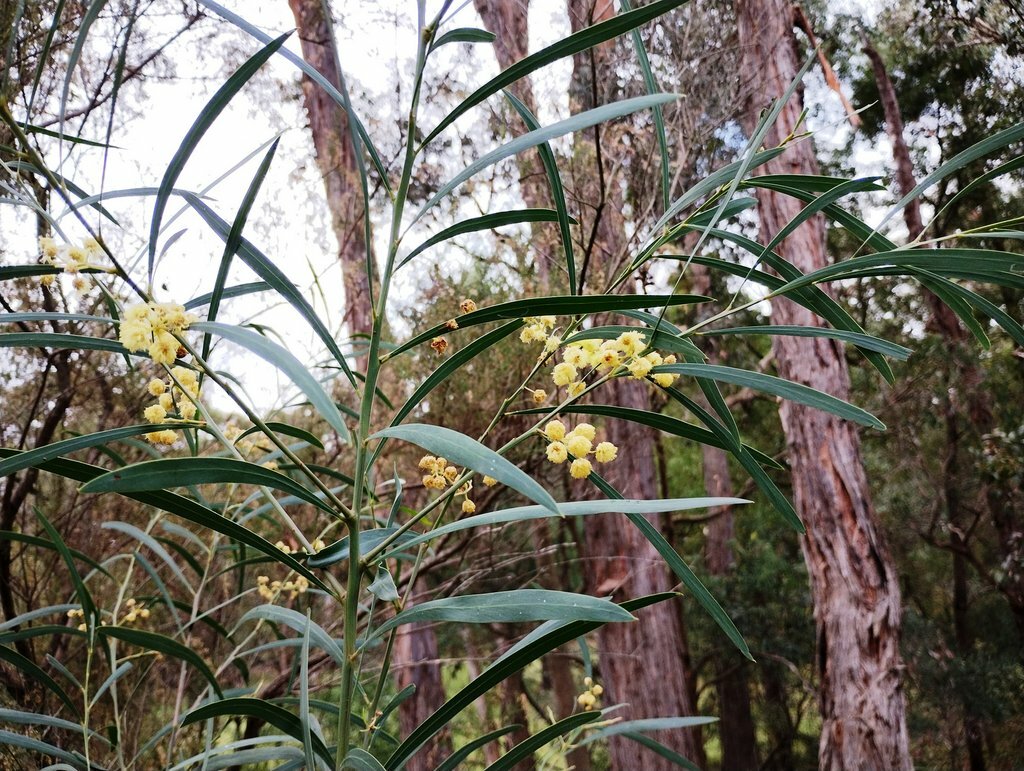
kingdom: Plantae
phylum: Tracheophyta
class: Magnoliopsida
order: Fabales
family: Fabaceae
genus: Acacia
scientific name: Acacia provincialis
